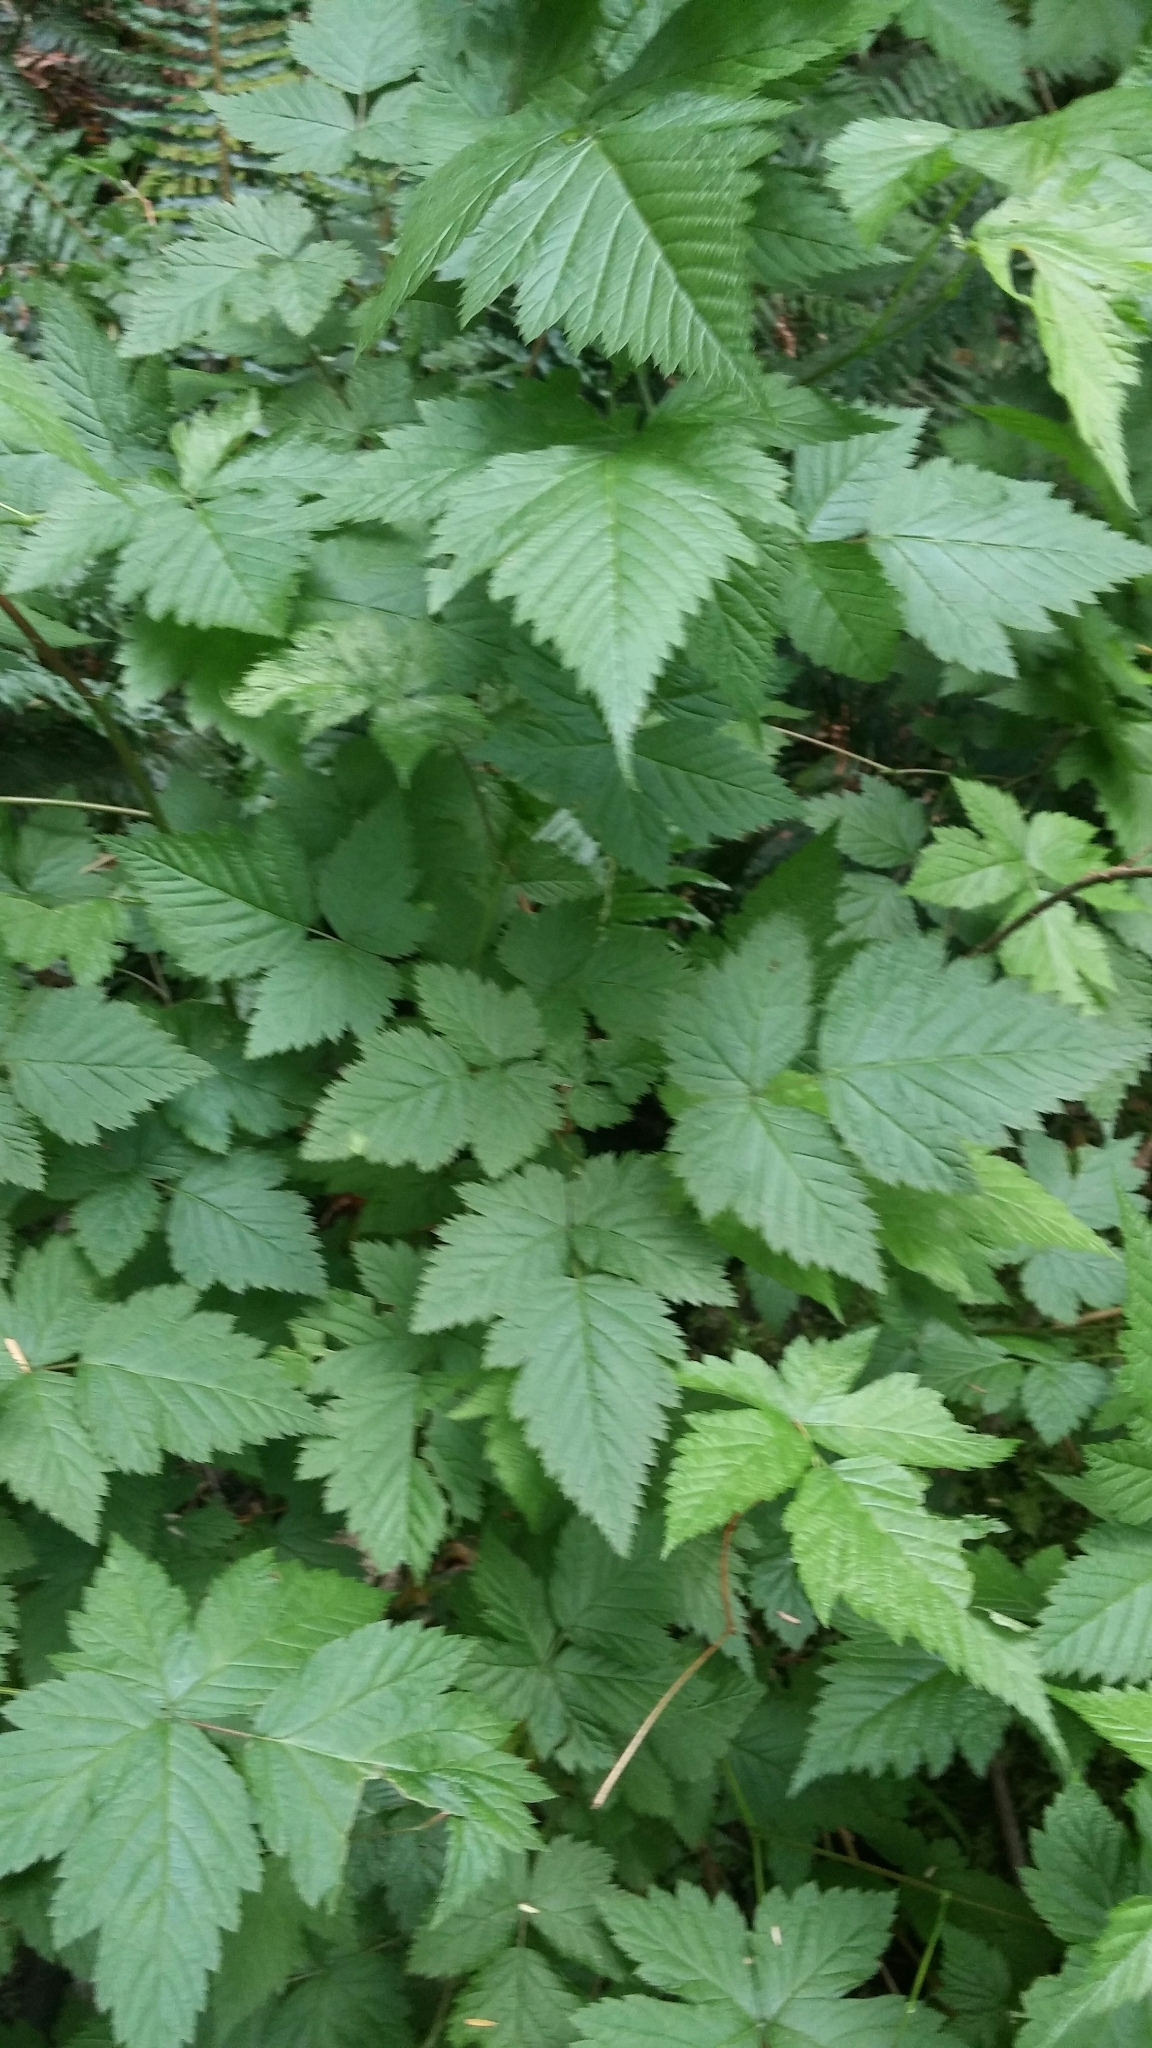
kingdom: Plantae
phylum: Tracheophyta
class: Magnoliopsida
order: Rosales
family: Rosaceae
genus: Rubus
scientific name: Rubus spectabilis
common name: Salmonberry
